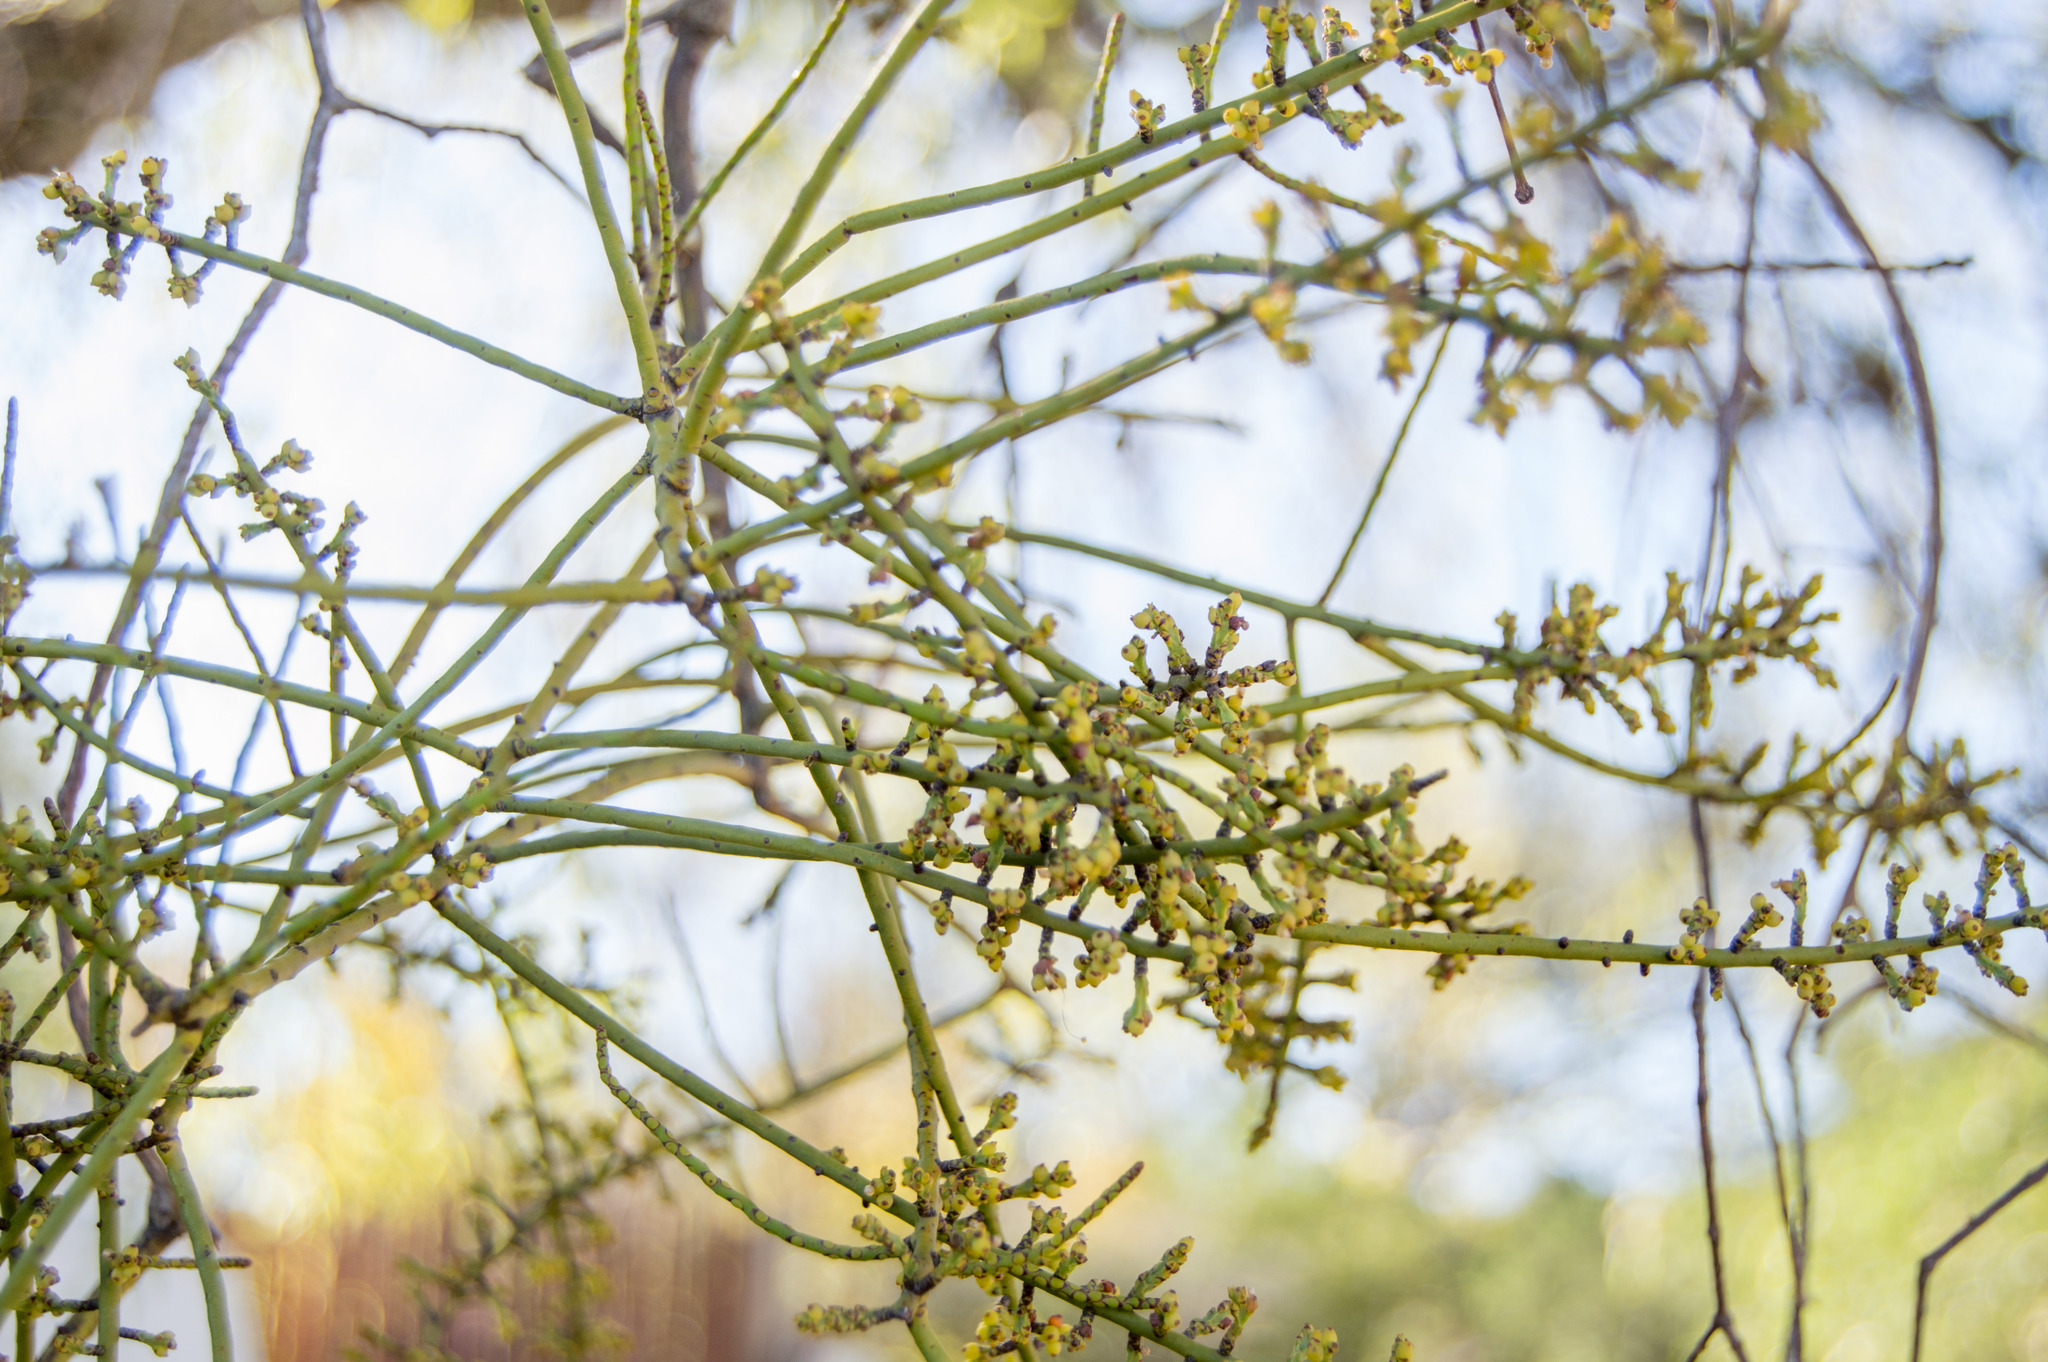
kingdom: Plantae
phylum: Tracheophyta
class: Magnoliopsida
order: Santalales
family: Santalaceae
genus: Eubrachion
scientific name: Eubrachion ambiguum
